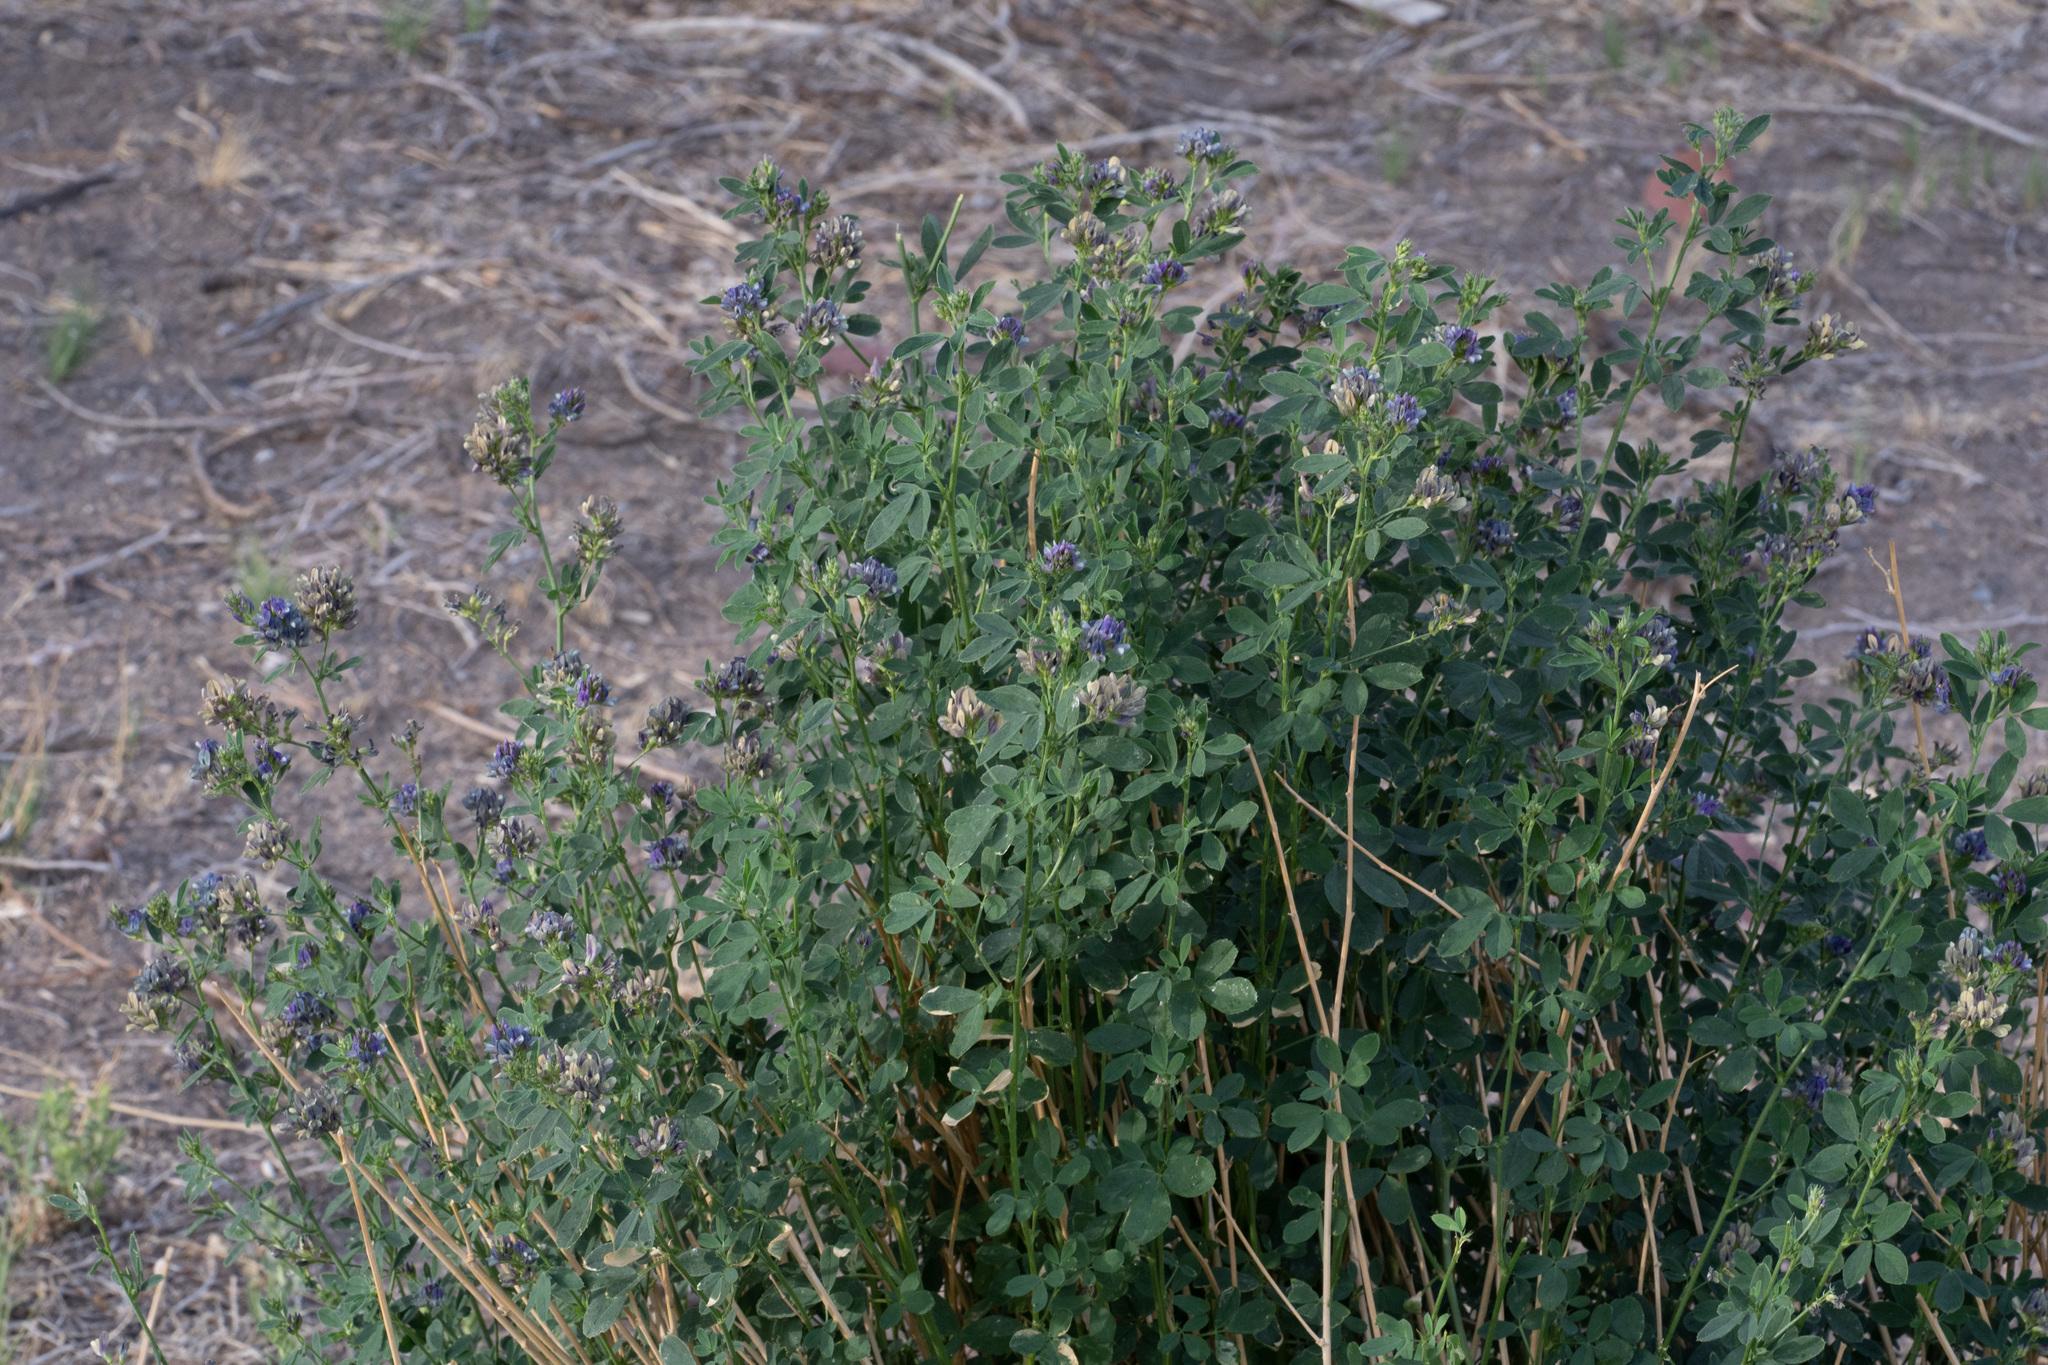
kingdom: Plantae
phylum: Tracheophyta
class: Magnoliopsida
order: Fabales
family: Fabaceae
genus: Medicago
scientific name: Medicago sativa
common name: Alfalfa
